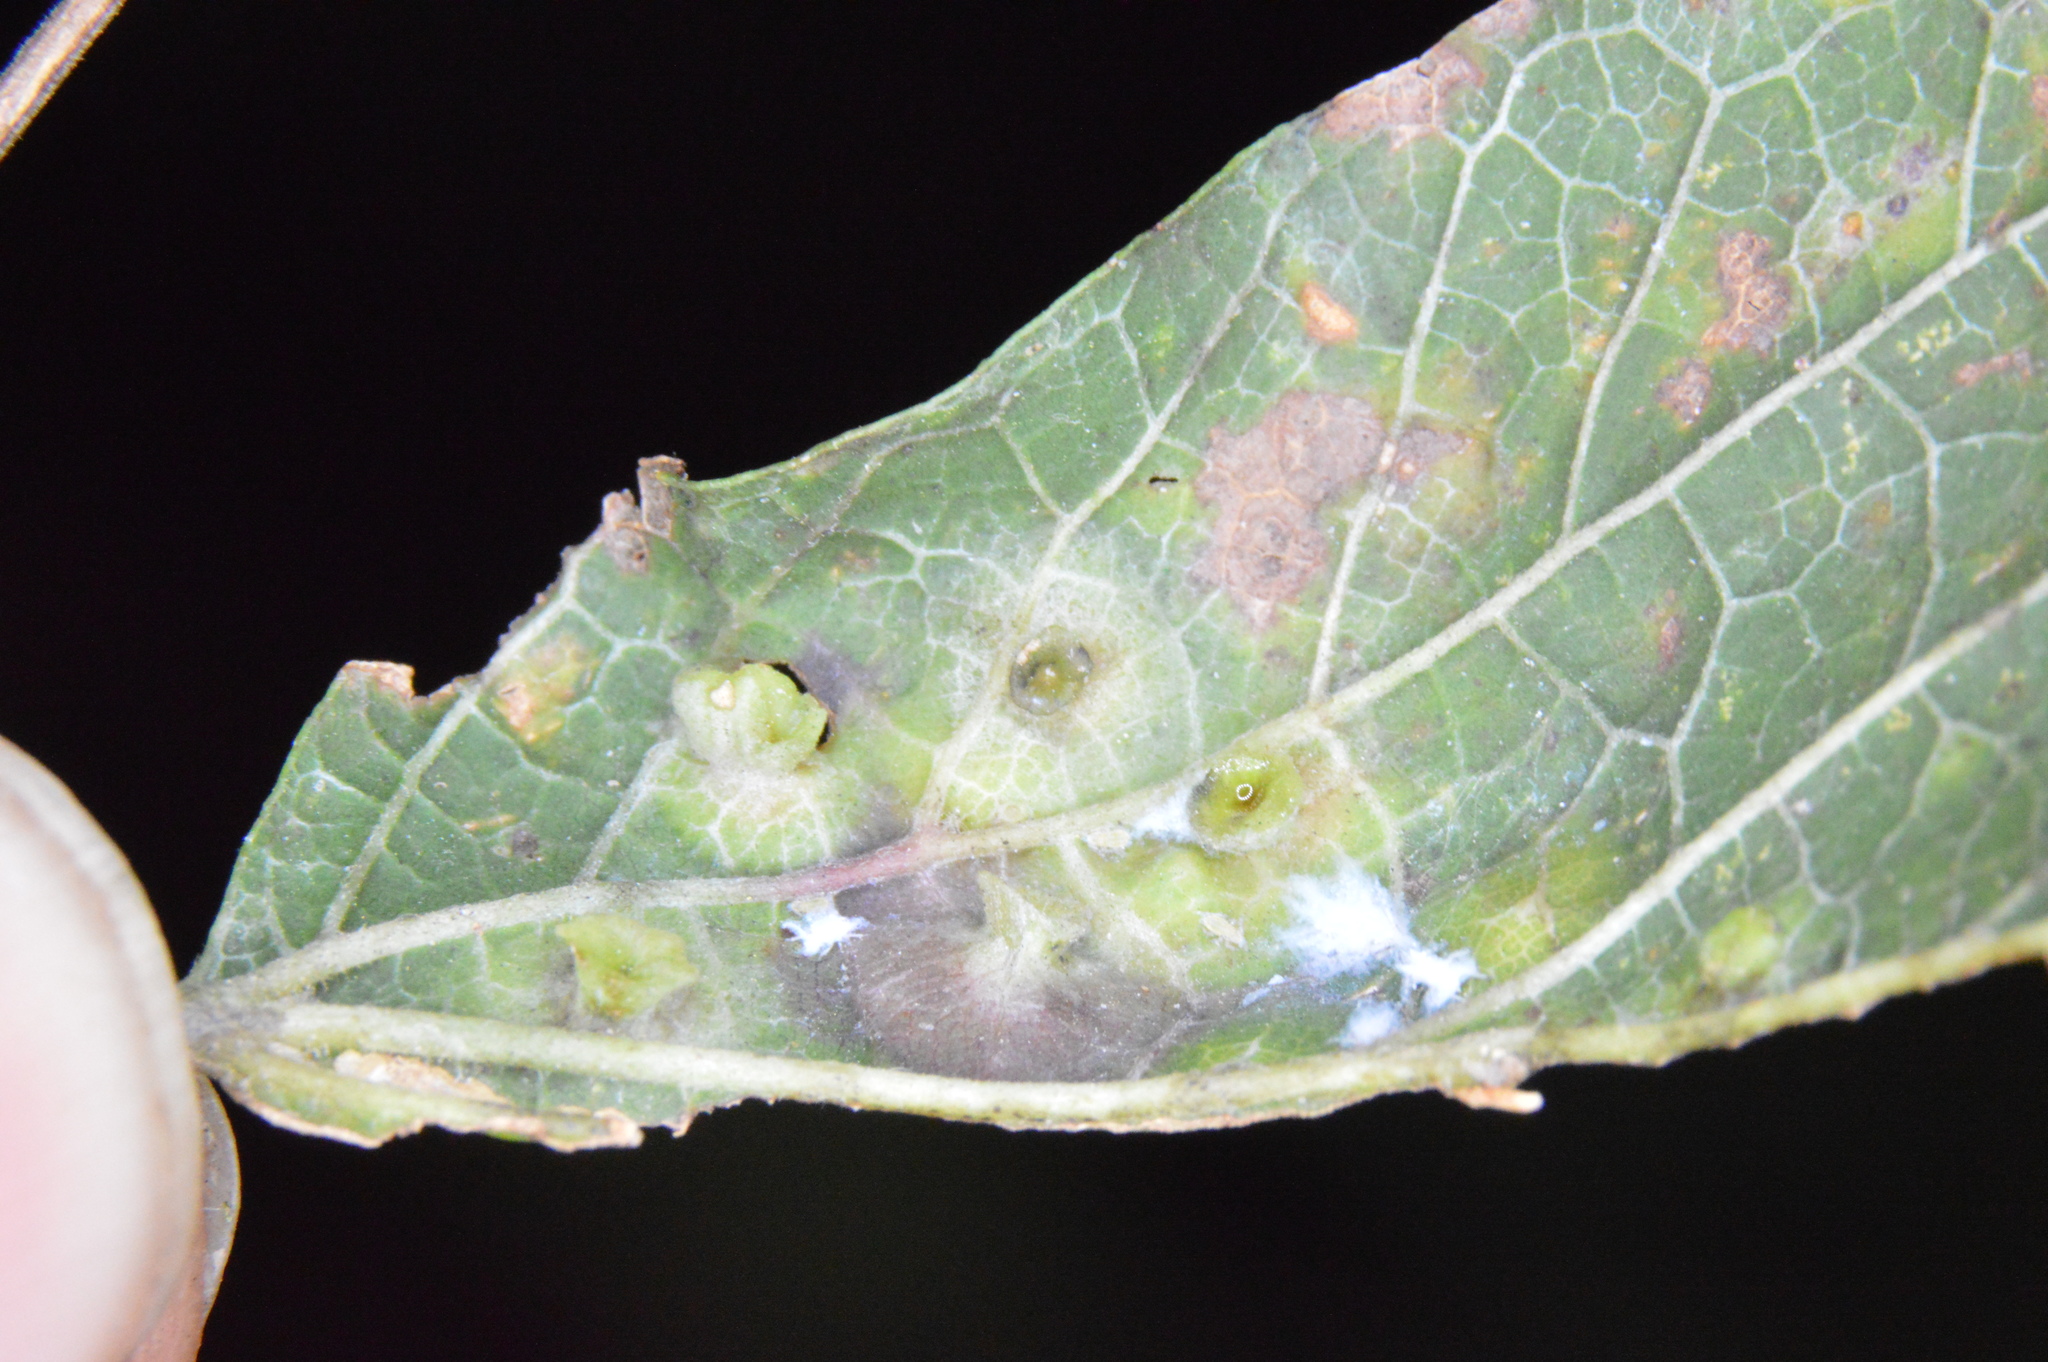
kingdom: Animalia
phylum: Arthropoda
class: Insecta
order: Hemiptera
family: Aphalaridae
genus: Pachypsylla
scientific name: Pachypsylla celtidisasterisca
